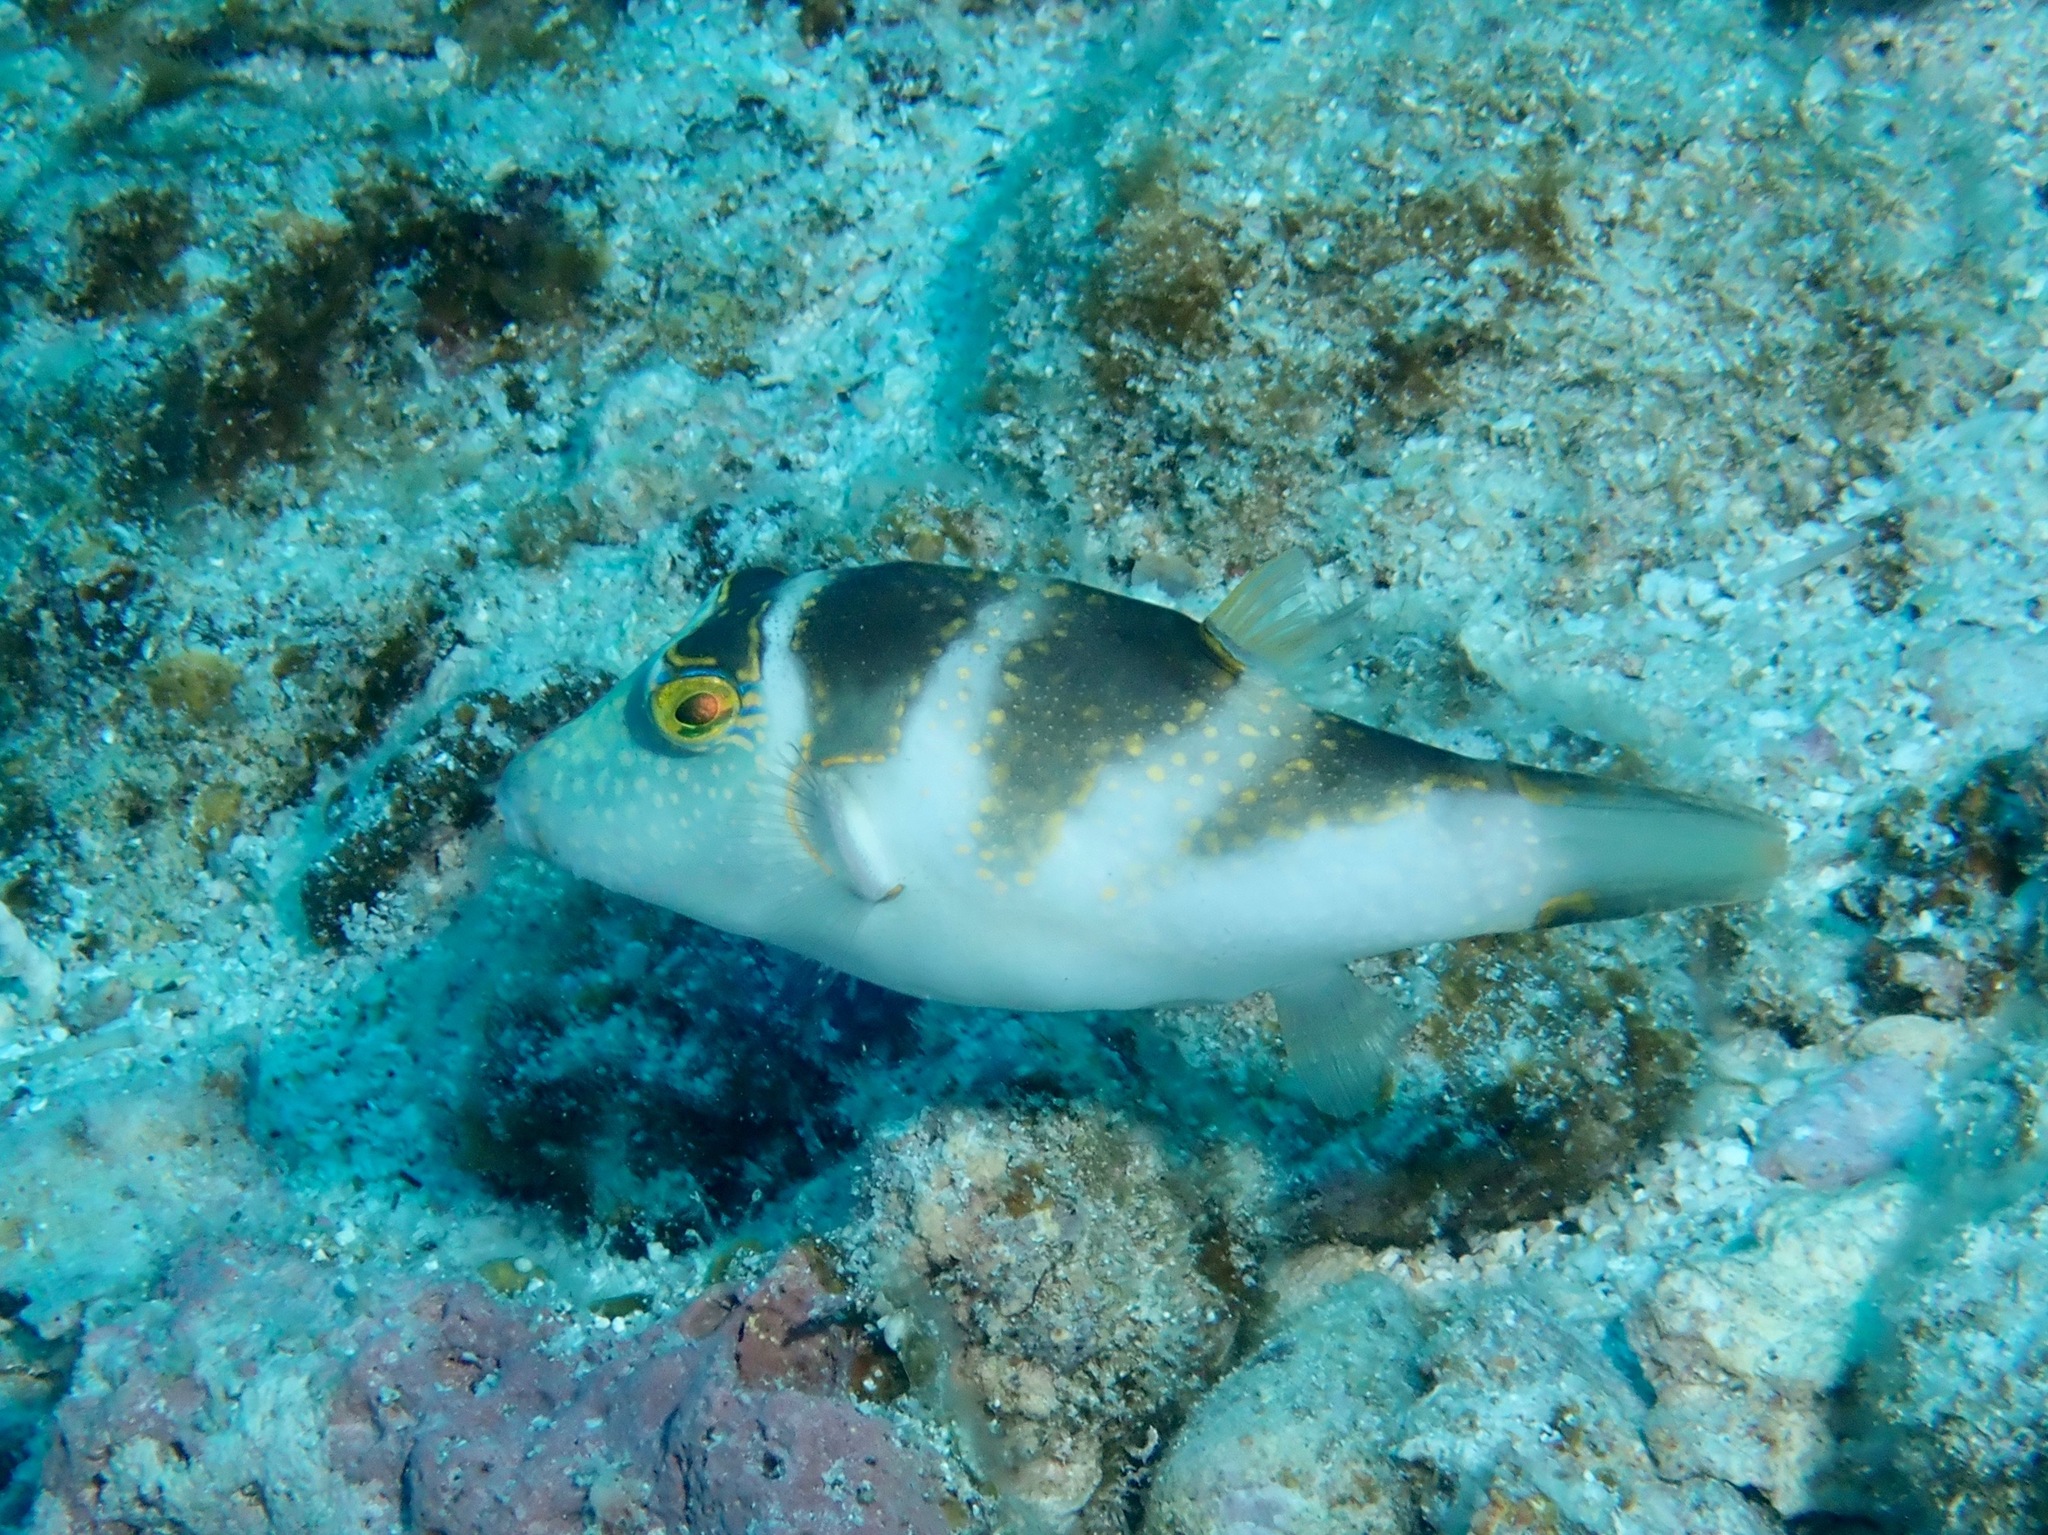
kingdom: Animalia
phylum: Chordata
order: Tetraodontiformes
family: Tetraodontidae
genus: Canthigaster
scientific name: Canthigaster coronata
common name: Crown toby
